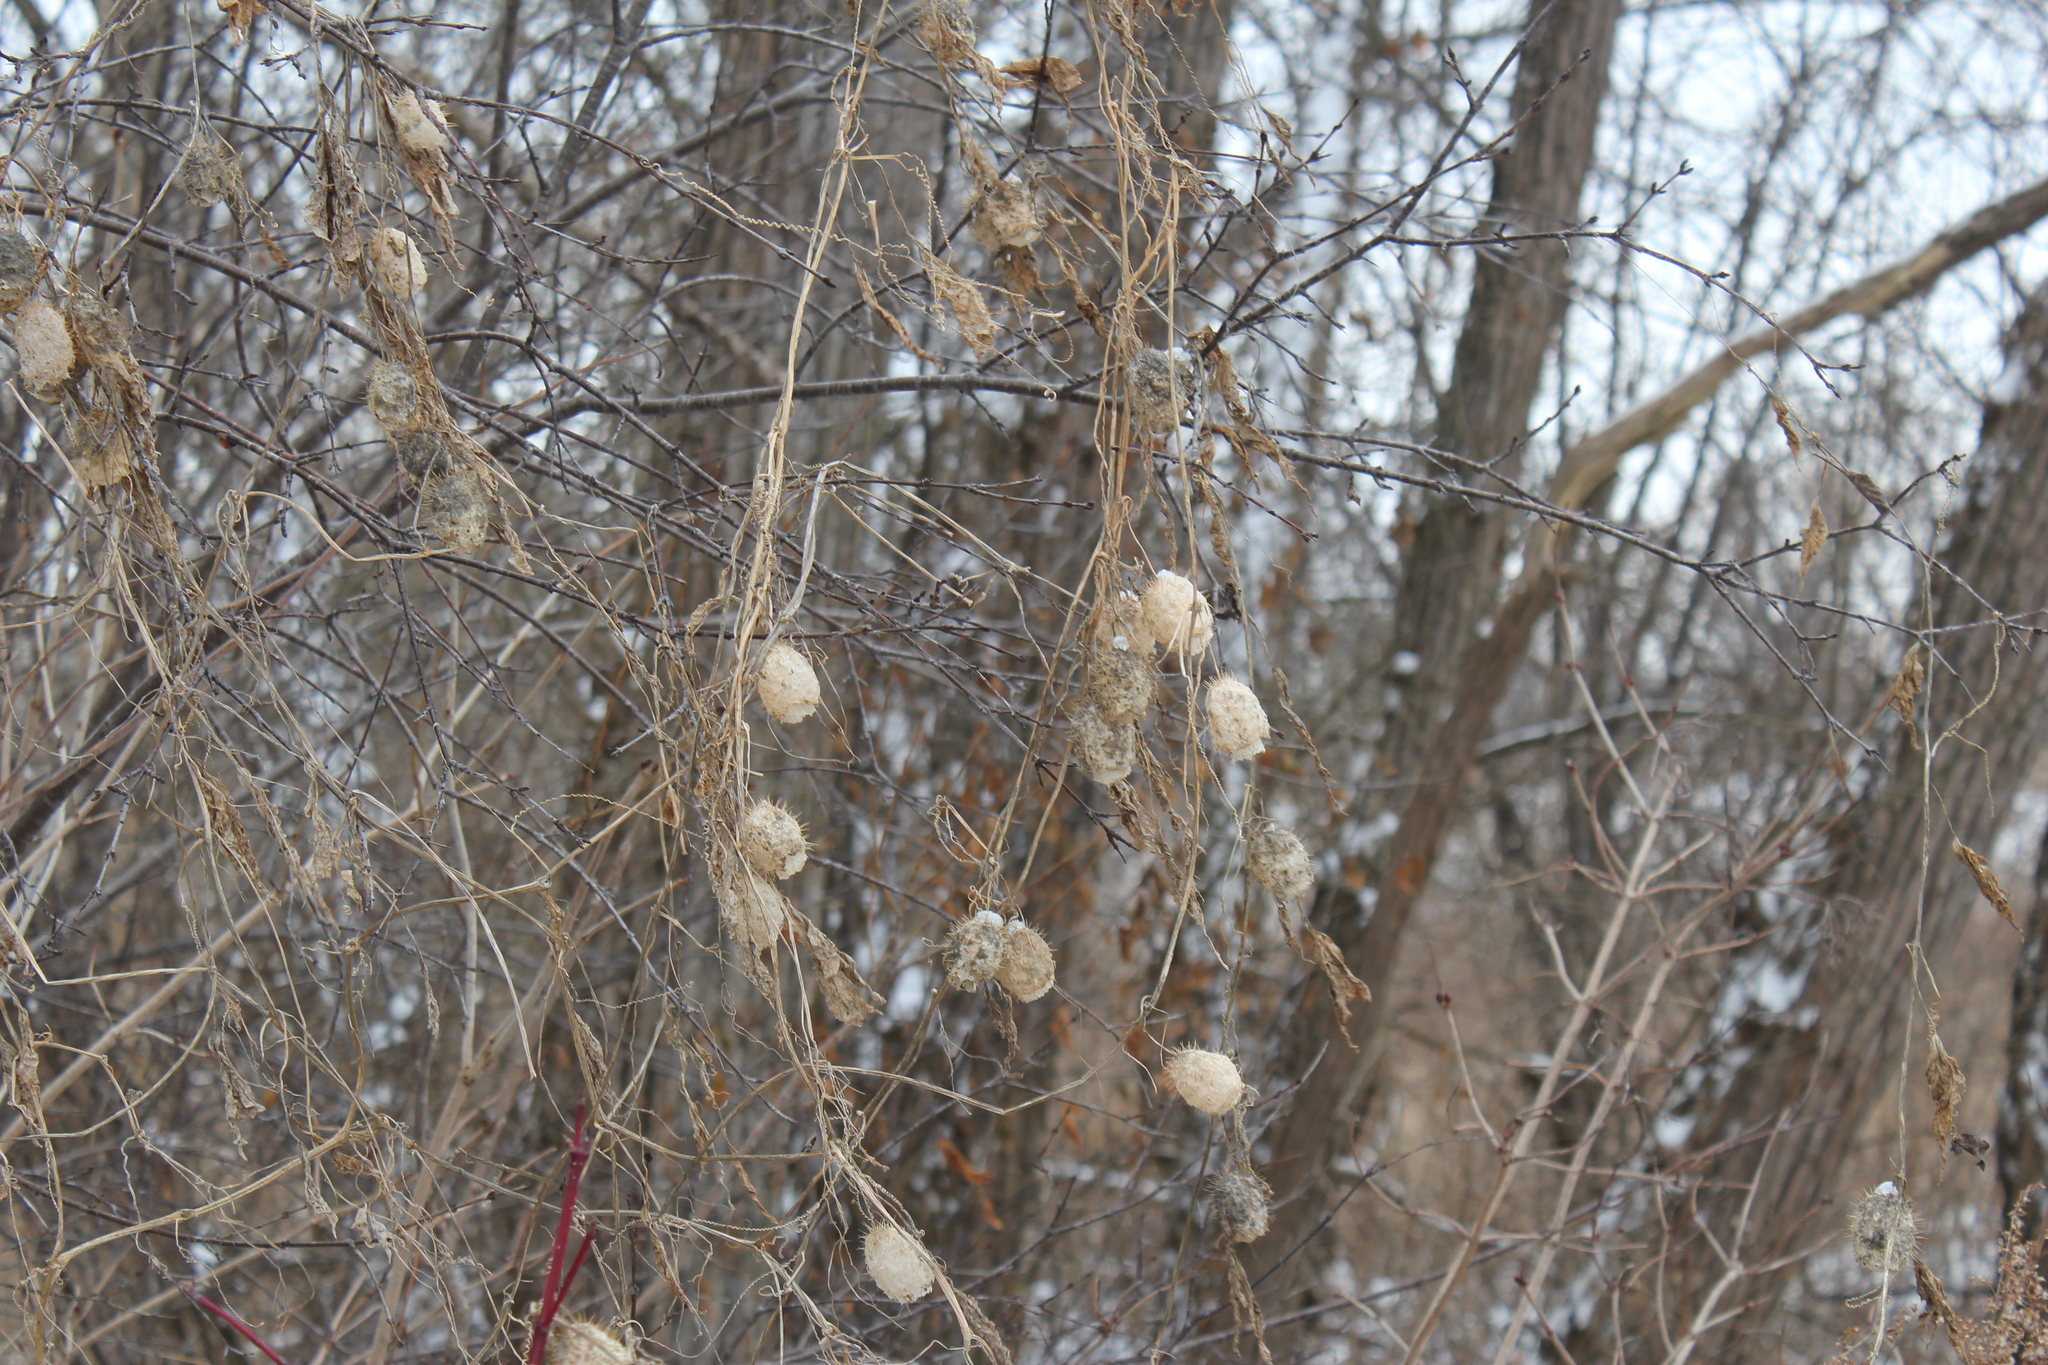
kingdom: Plantae
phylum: Tracheophyta
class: Magnoliopsida
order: Cucurbitales
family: Cucurbitaceae
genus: Echinocystis
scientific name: Echinocystis lobata
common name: Wild cucumber
